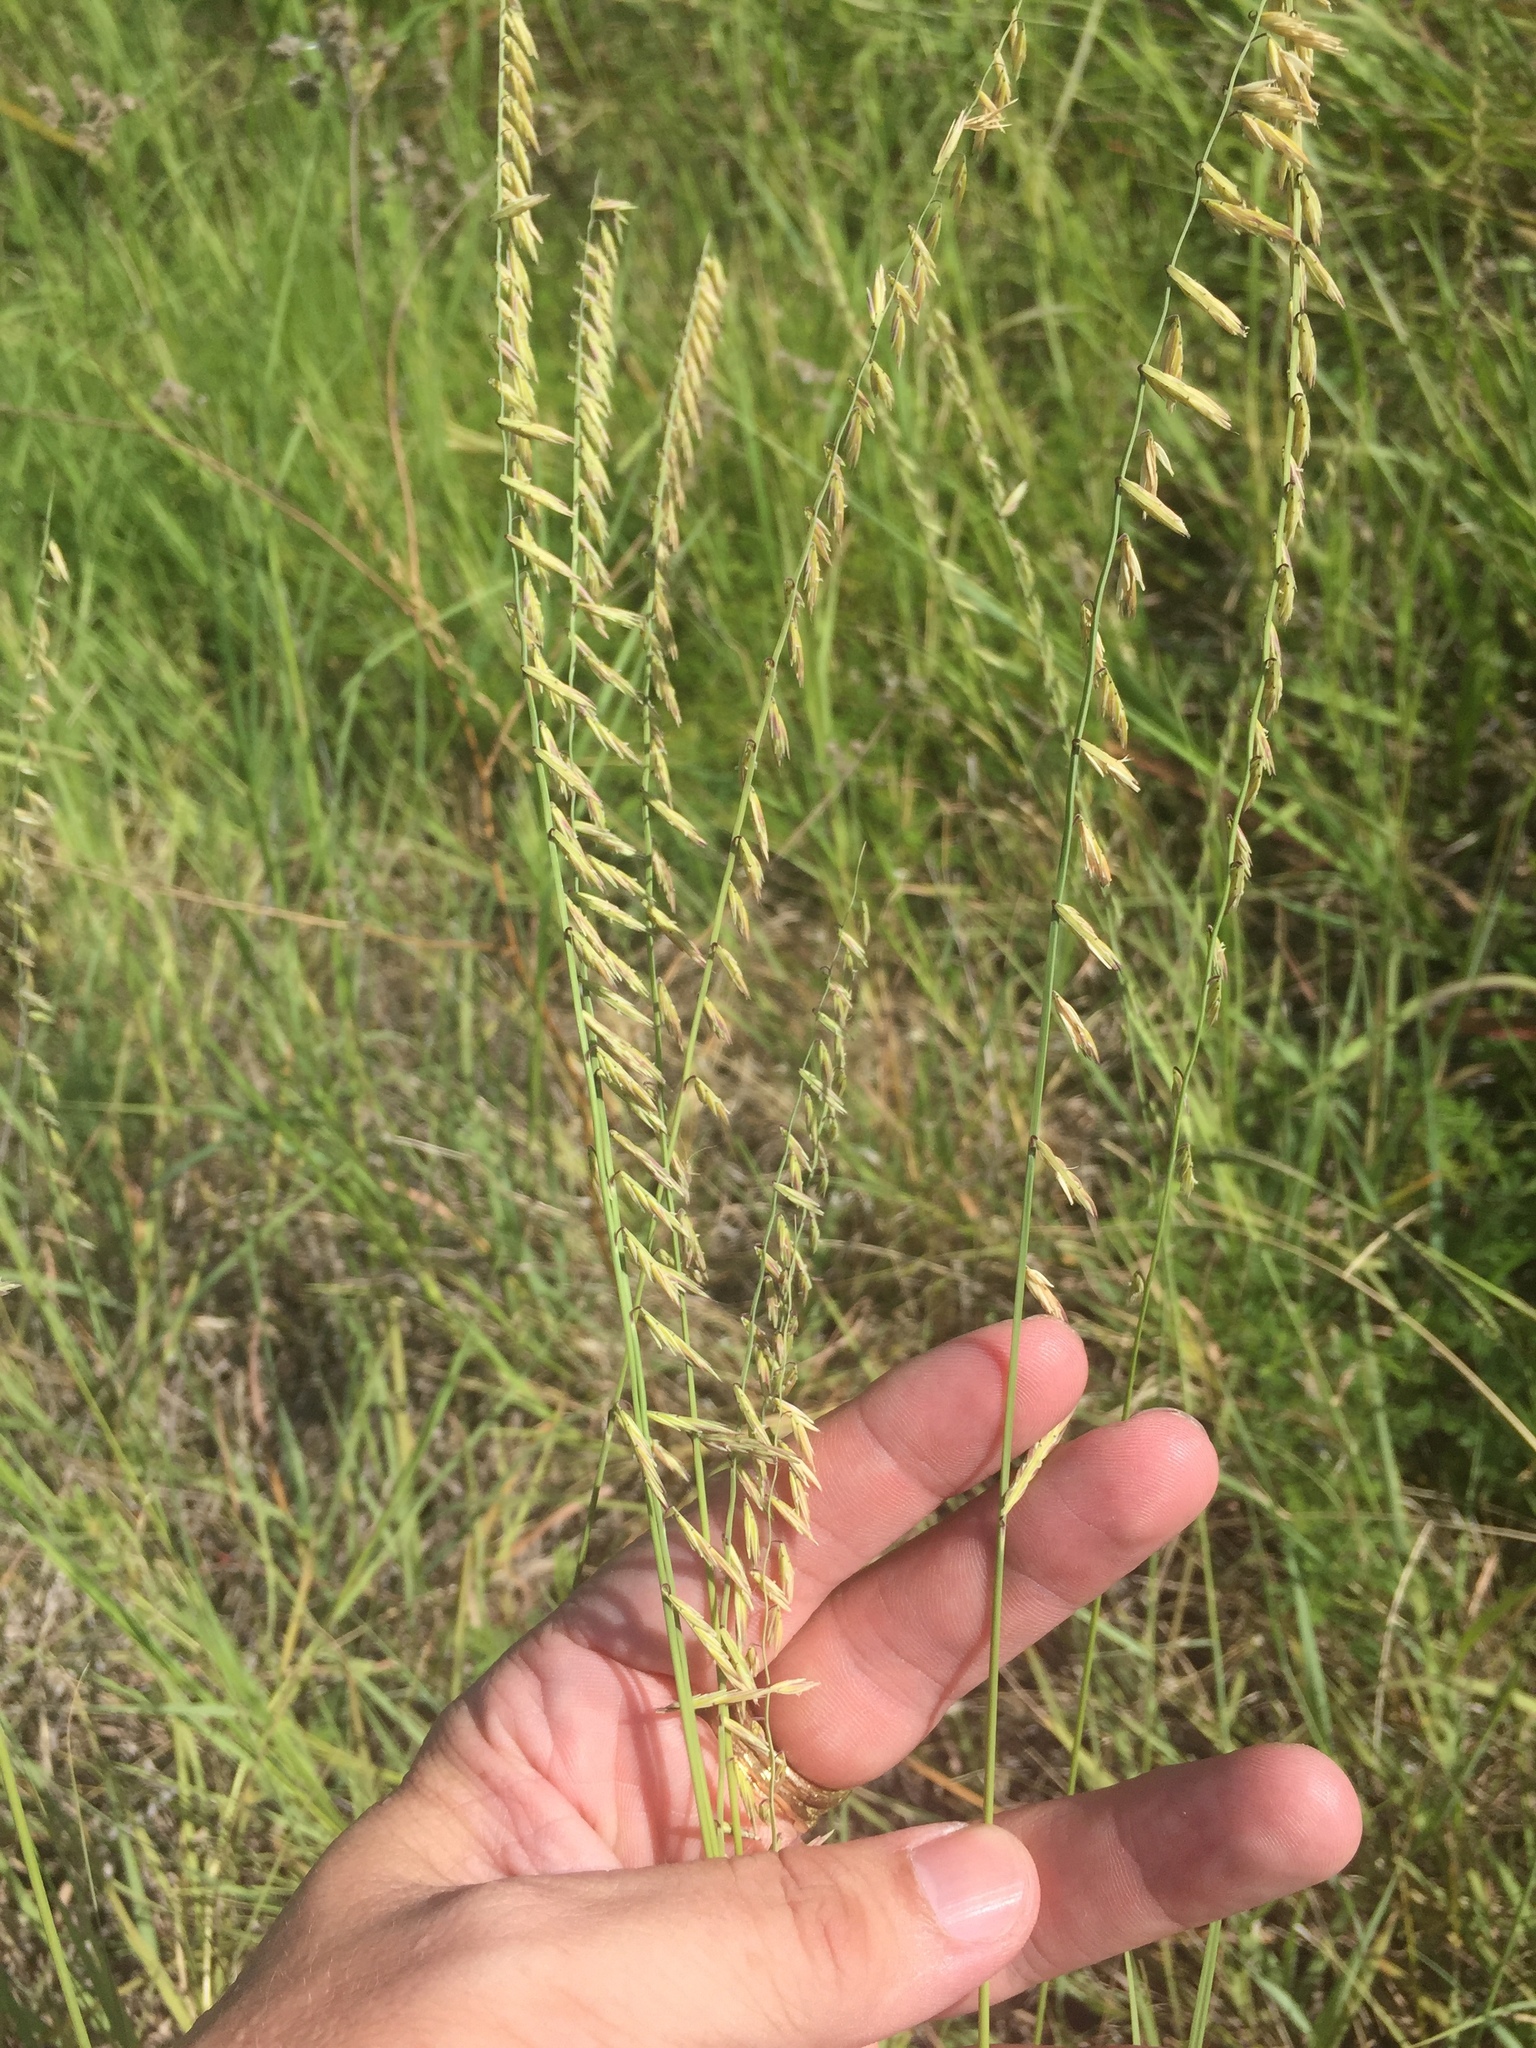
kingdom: Plantae
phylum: Tracheophyta
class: Liliopsida
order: Poales
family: Poaceae
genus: Bouteloua
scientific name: Bouteloua curtipendula
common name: Side-oats grama
